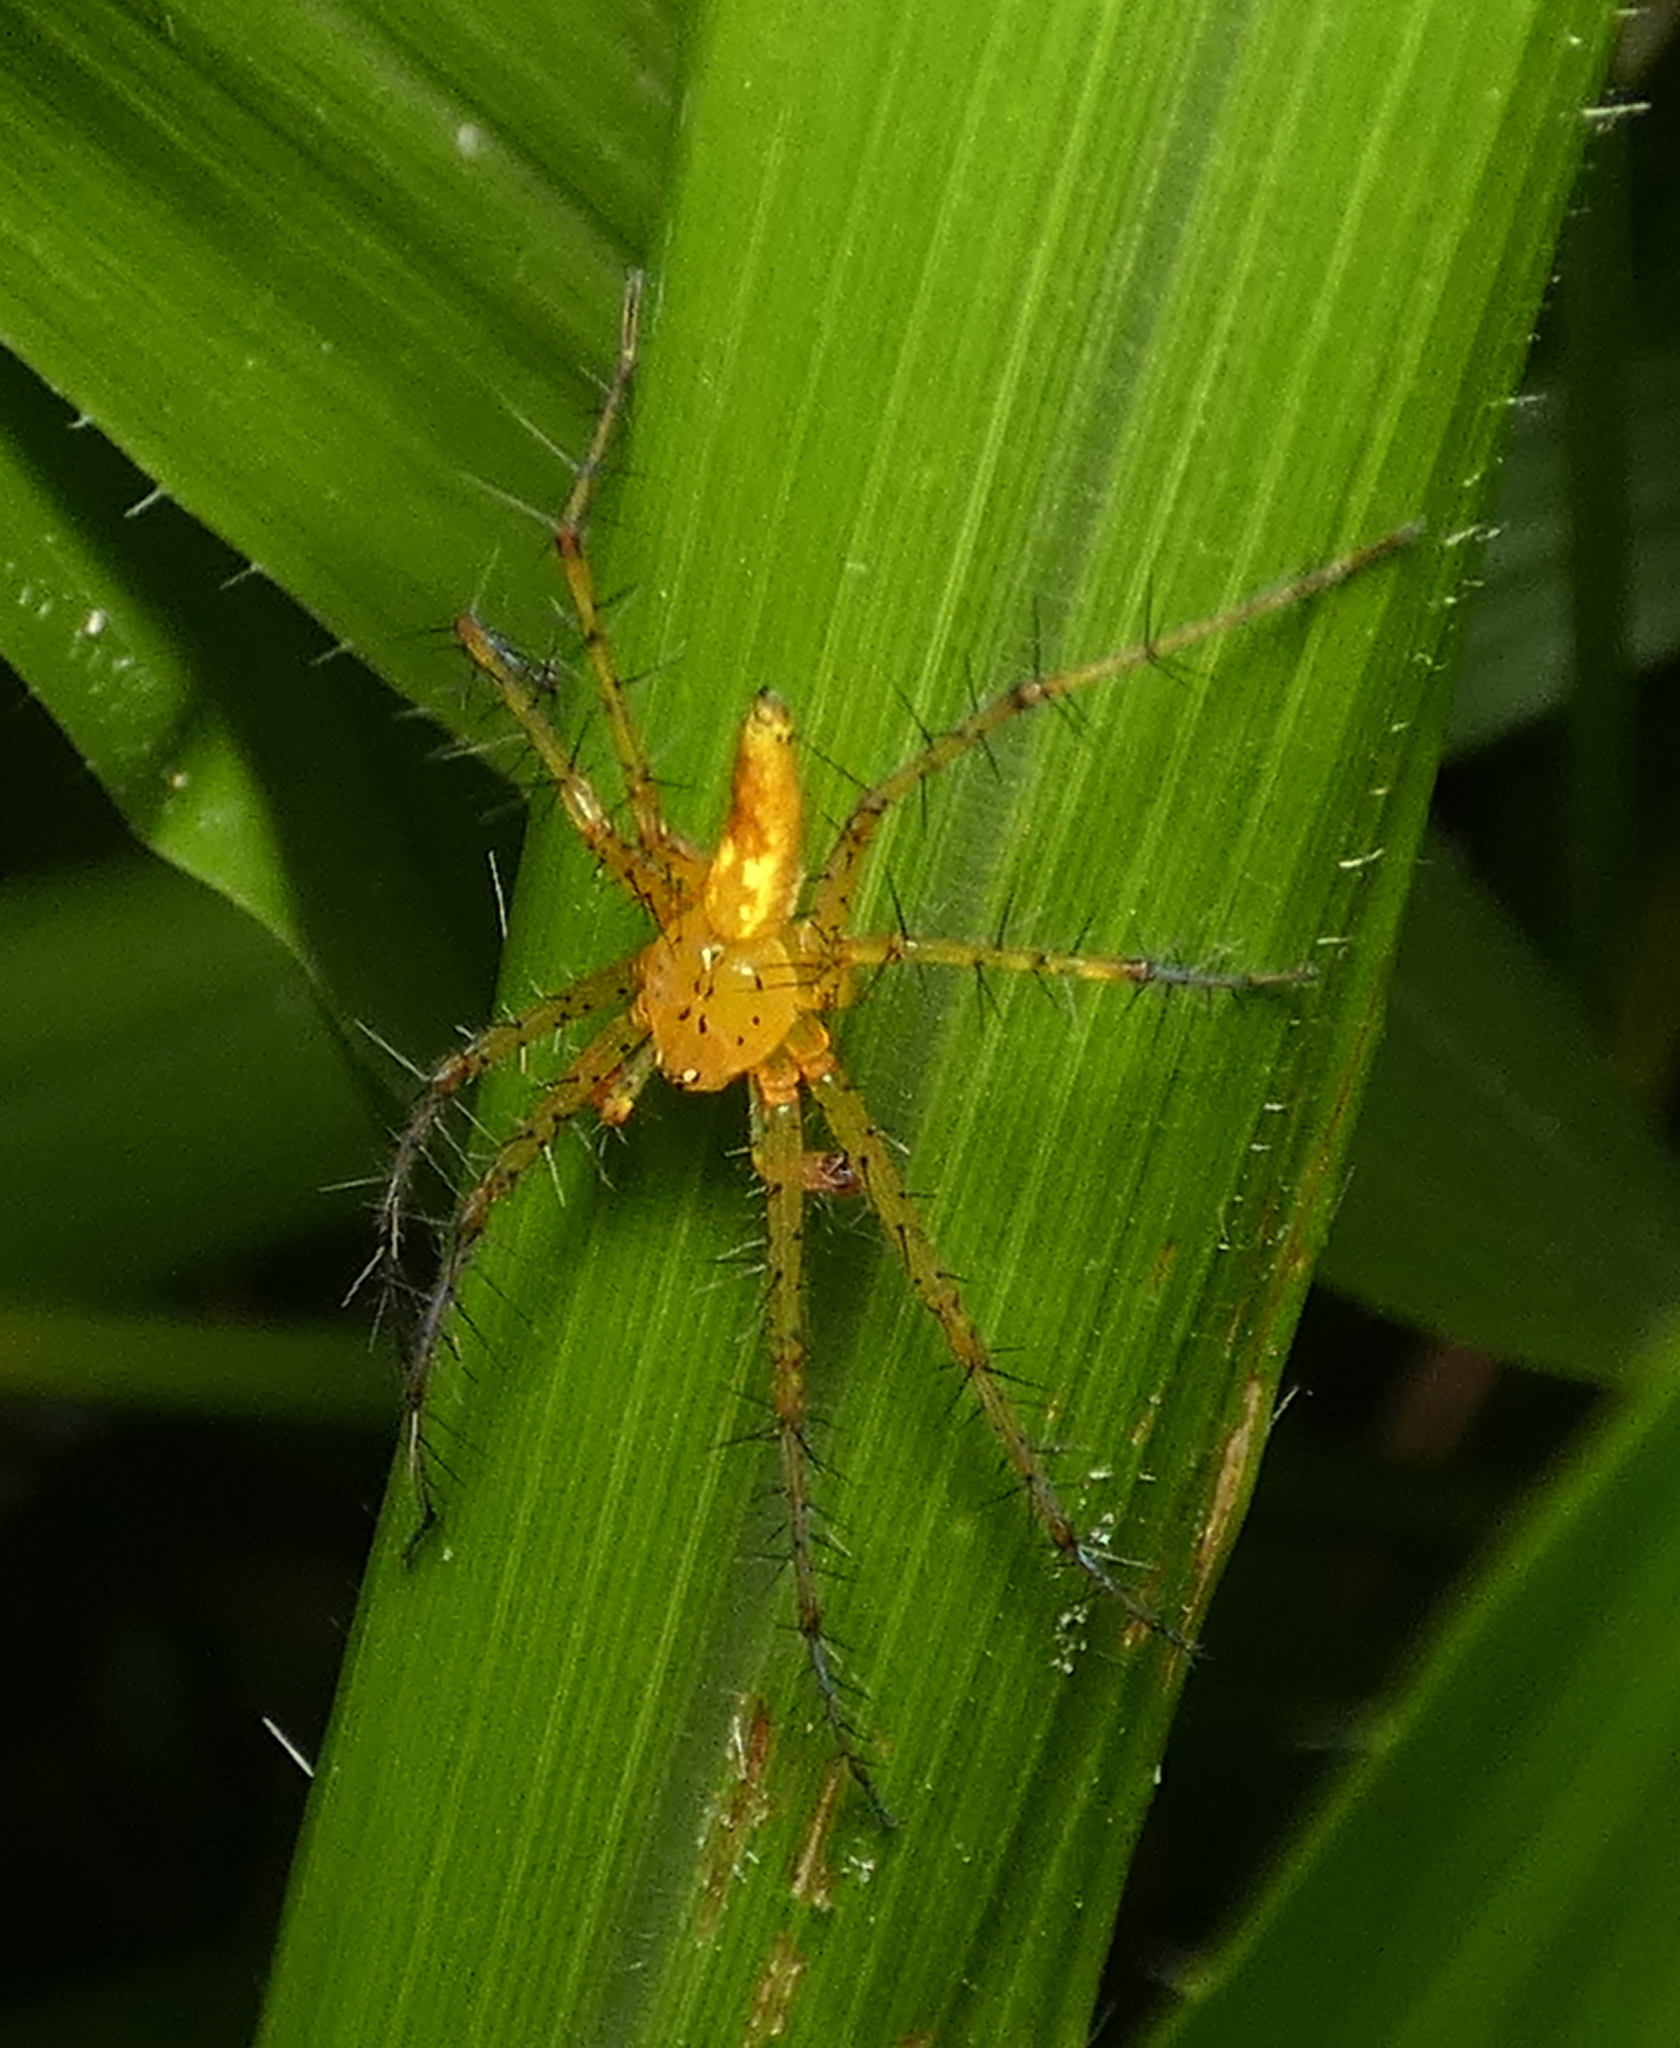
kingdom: Animalia
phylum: Arthropoda
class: Arachnida
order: Araneae
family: Pisauridae
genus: Architis
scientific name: Architis spinipes
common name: Nursery web spiders
